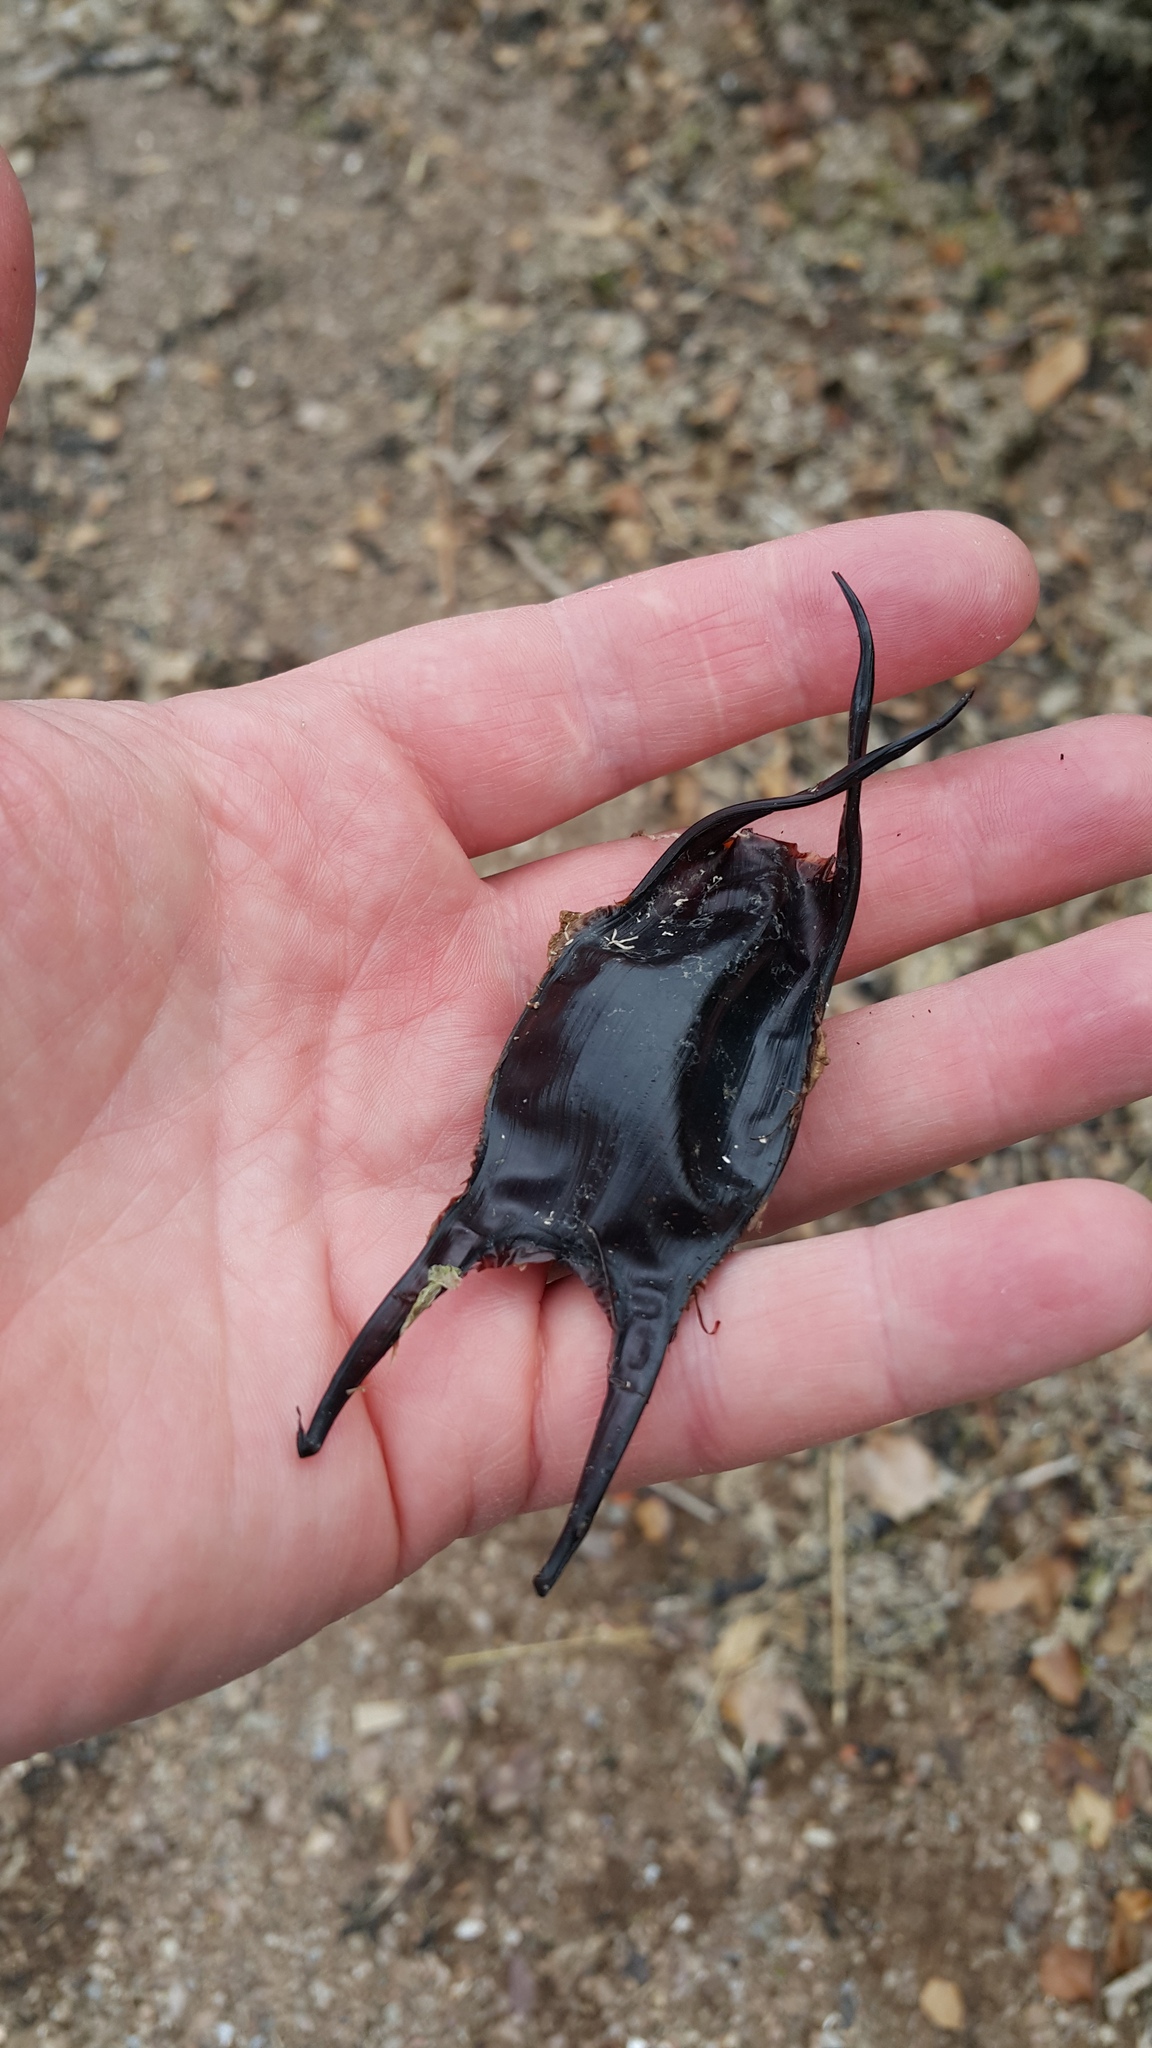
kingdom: Animalia
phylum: Chordata
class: Elasmobranchii
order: Rajiformes
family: Rajidae
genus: Raja
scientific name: Raja montagui
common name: Spotted ray
